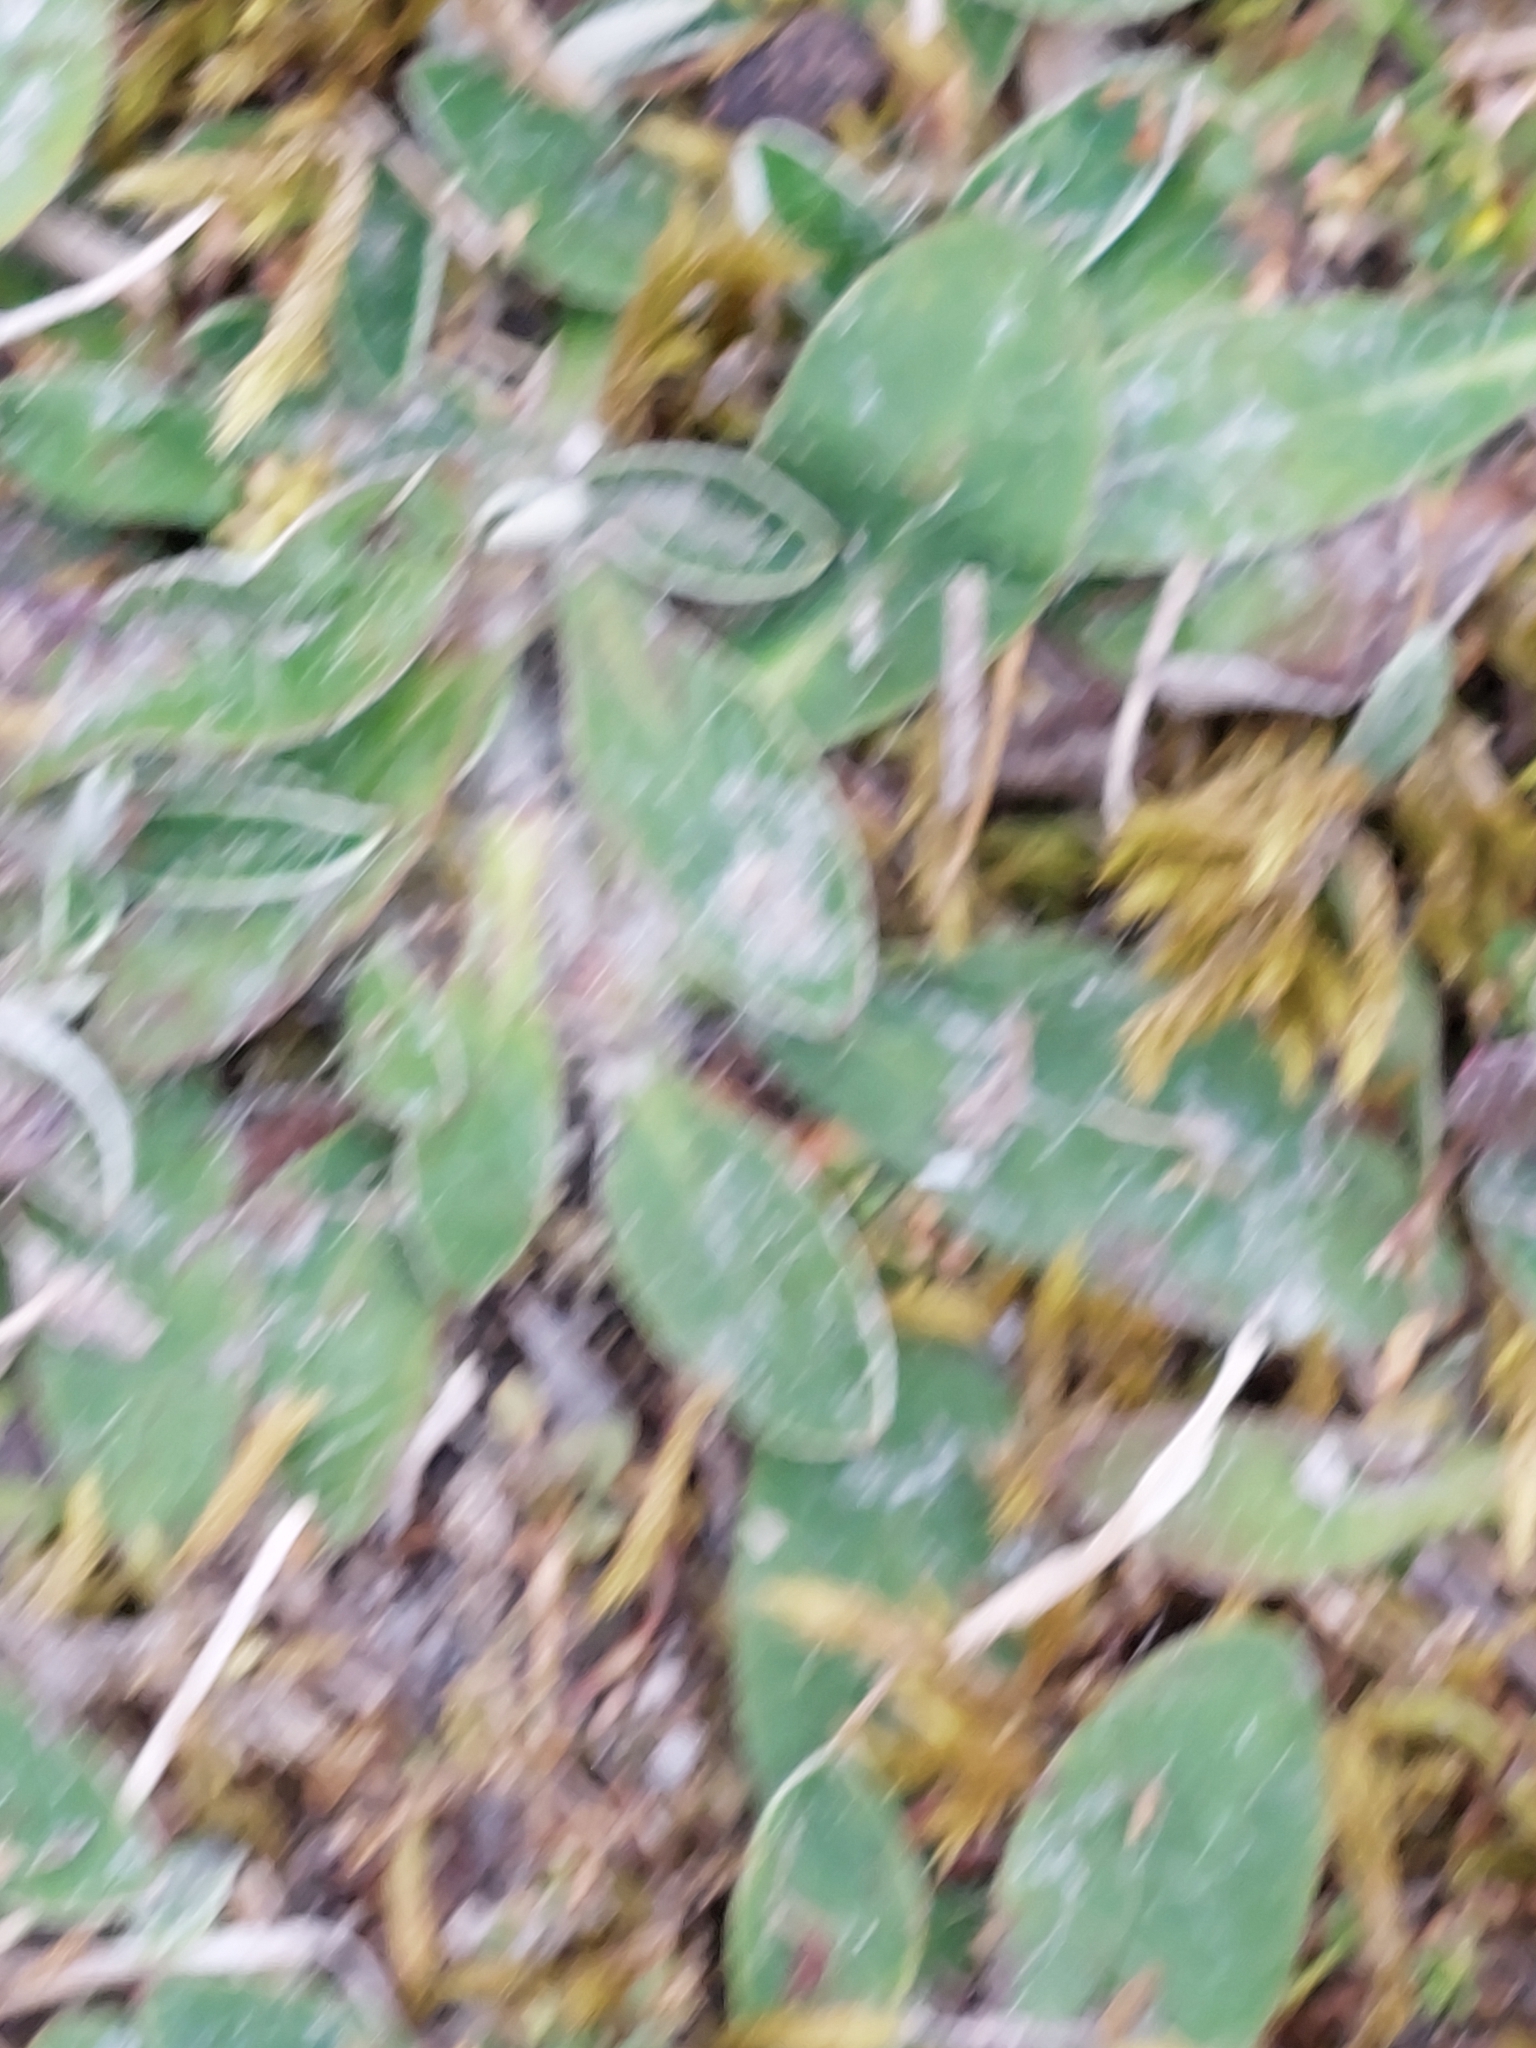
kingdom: Plantae
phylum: Tracheophyta
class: Magnoliopsida
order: Asterales
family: Asteraceae
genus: Pilosella
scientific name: Pilosella officinarum
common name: Mouse-ear hawkweed
